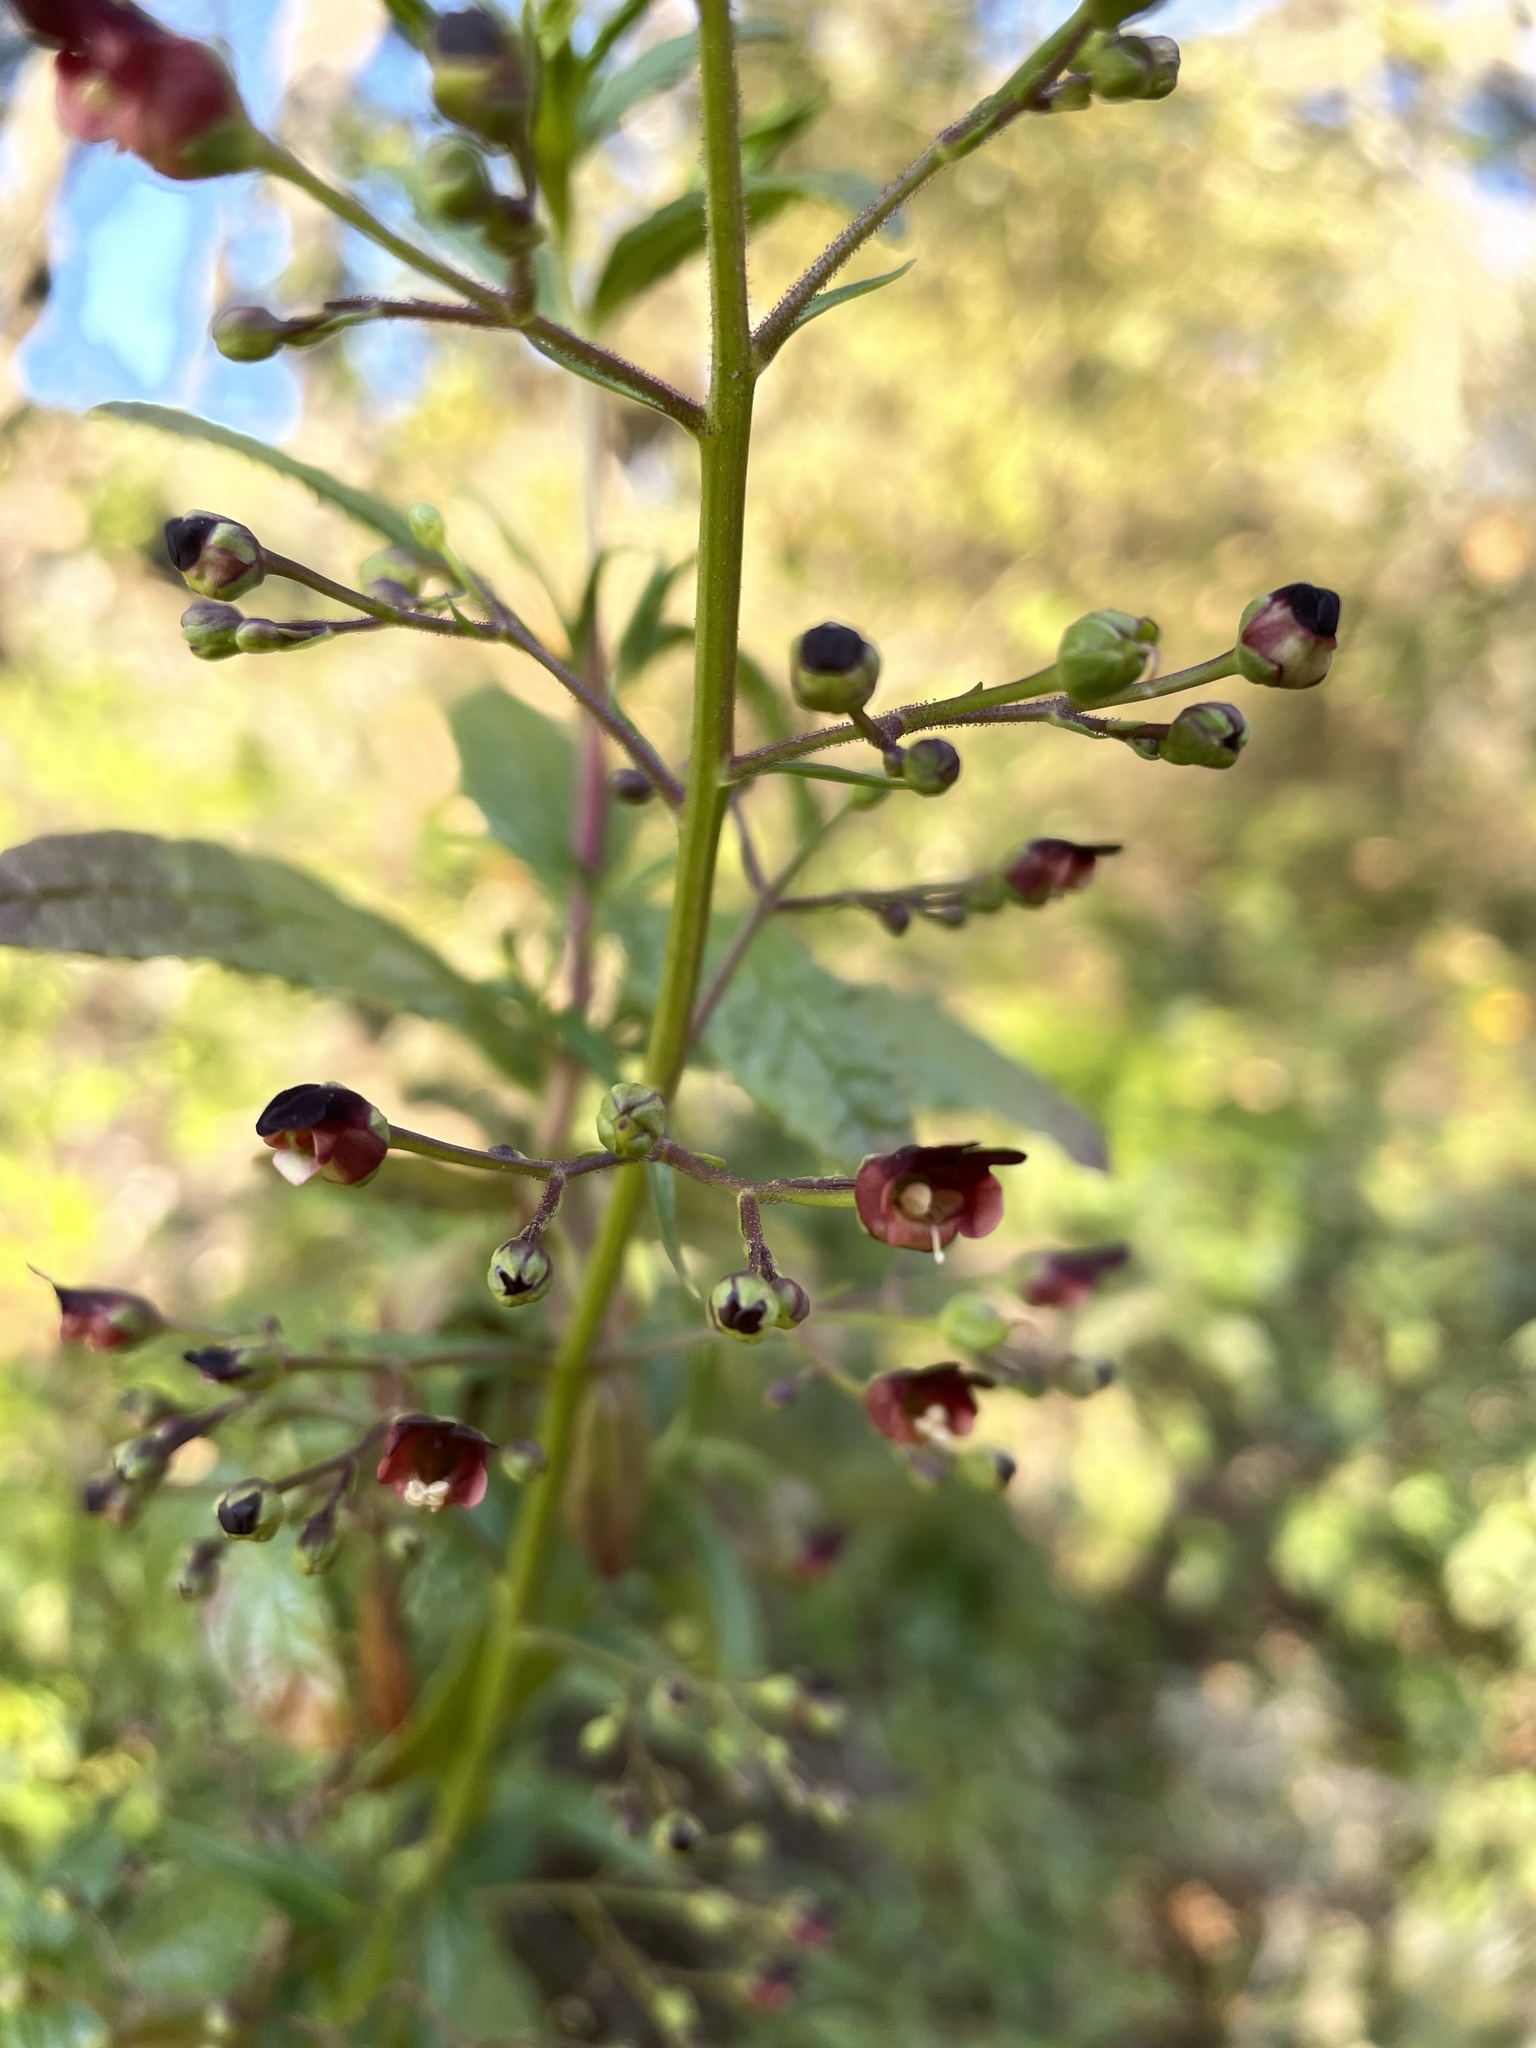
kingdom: Plantae
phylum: Tracheophyta
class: Magnoliopsida
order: Lamiales
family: Scrophulariaceae
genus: Scrophularia
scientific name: Scrophularia californica
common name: California figwort
